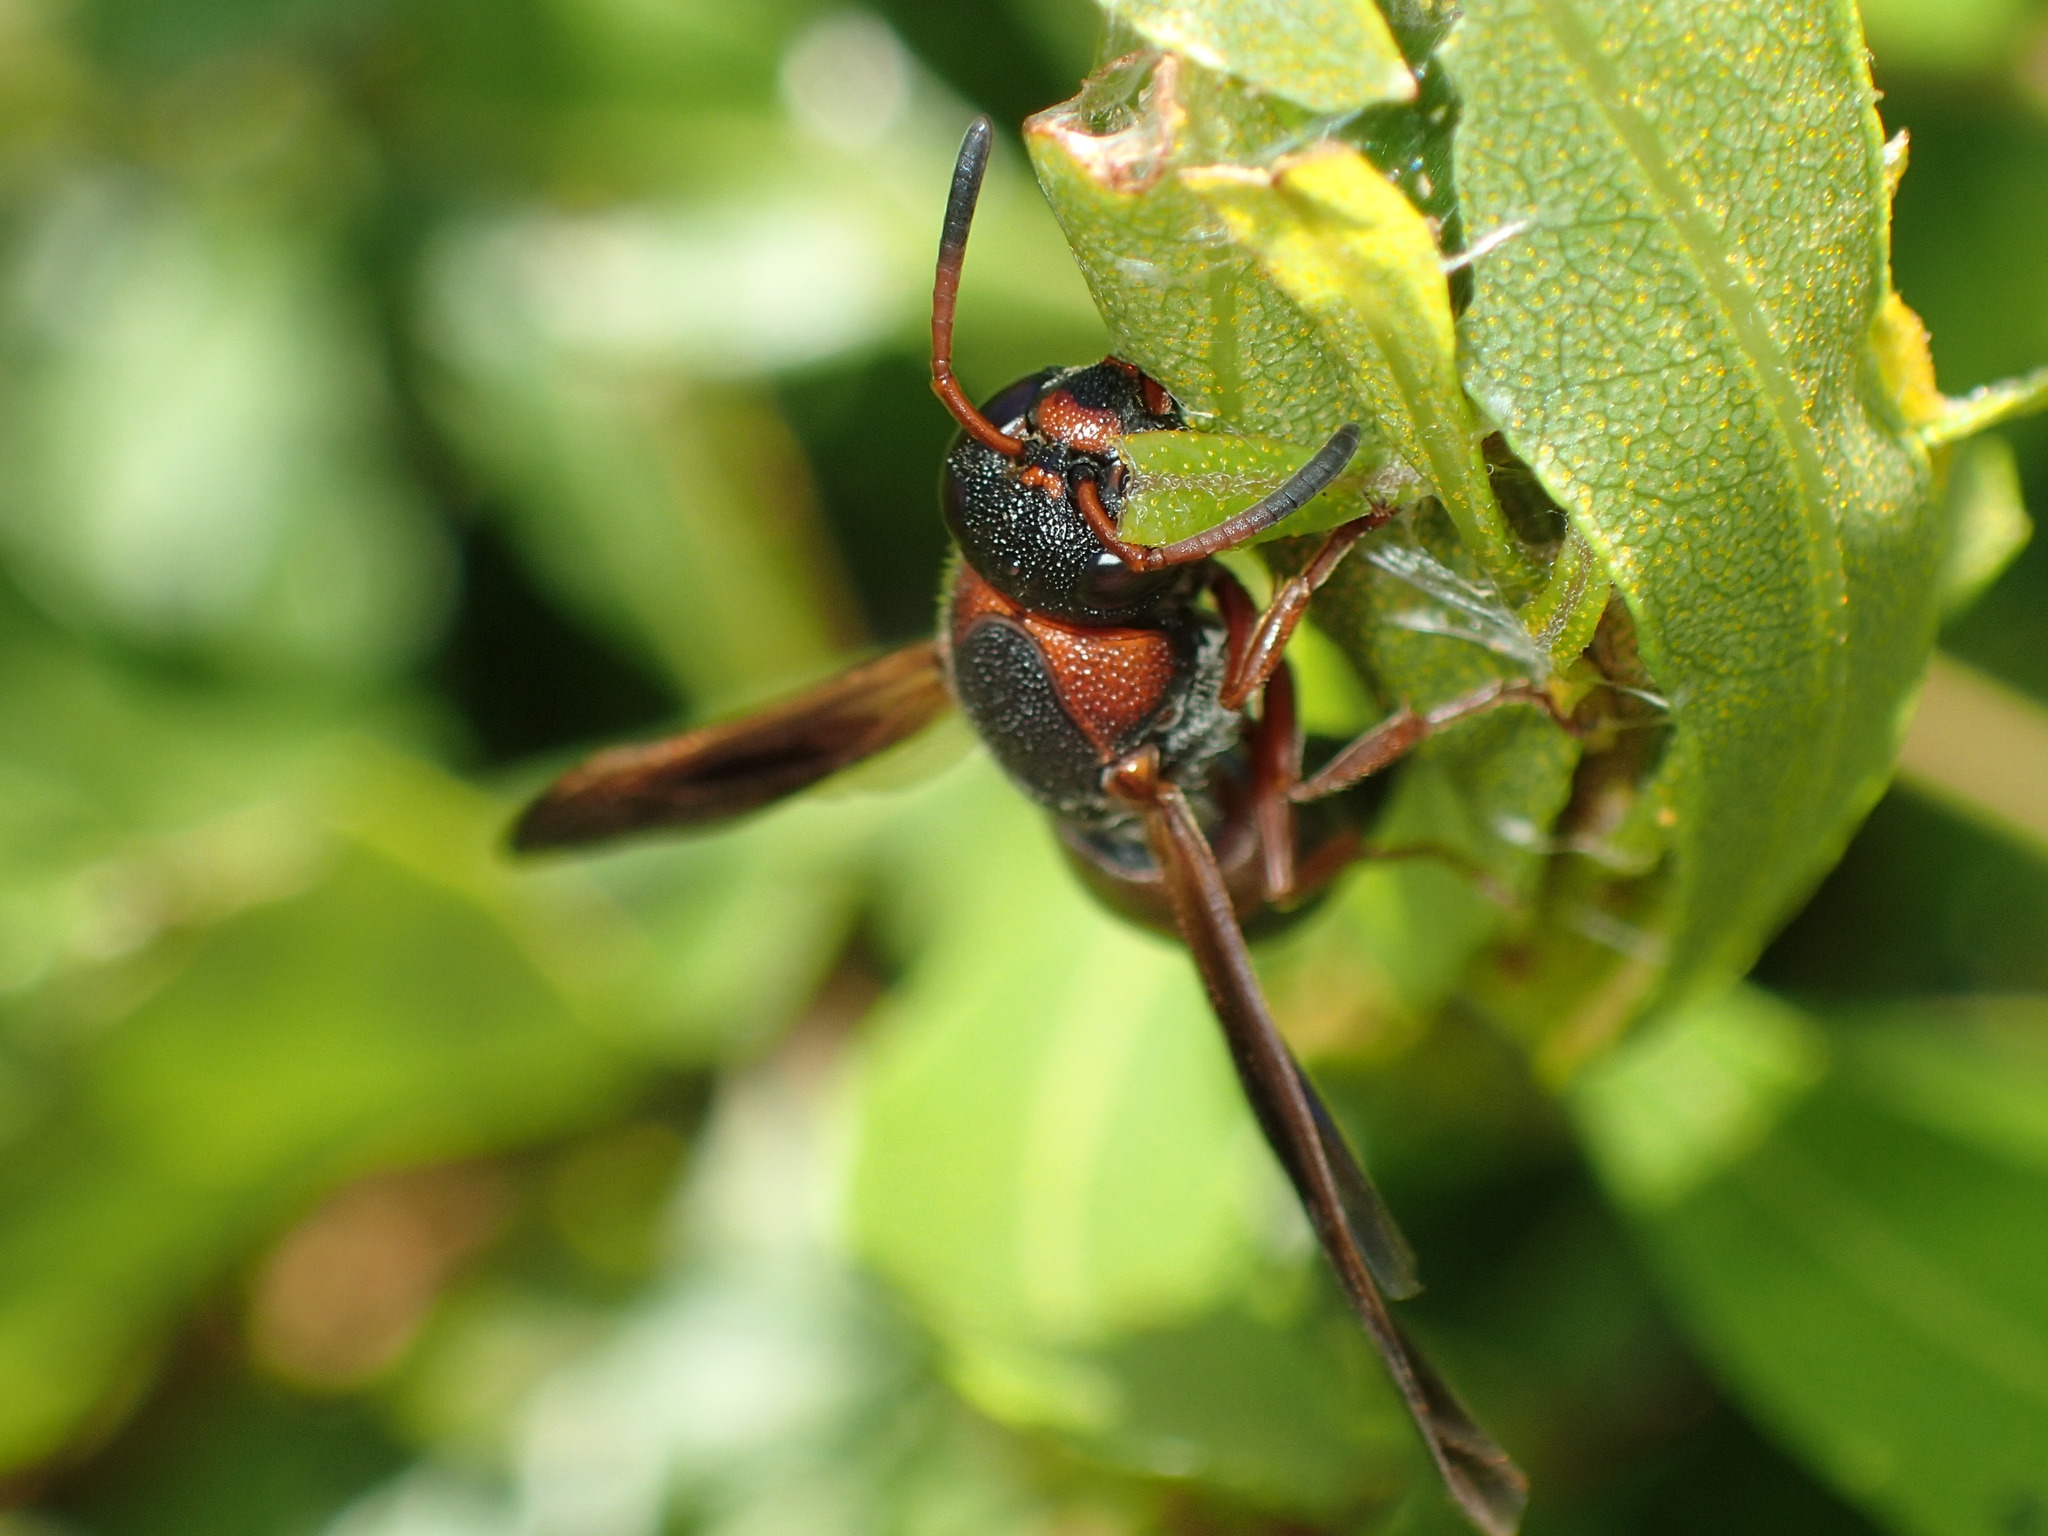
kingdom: Animalia
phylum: Arthropoda
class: Insecta
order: Hymenoptera
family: Eumenidae
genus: Pachodynerus
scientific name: Pachodynerus erynnis
